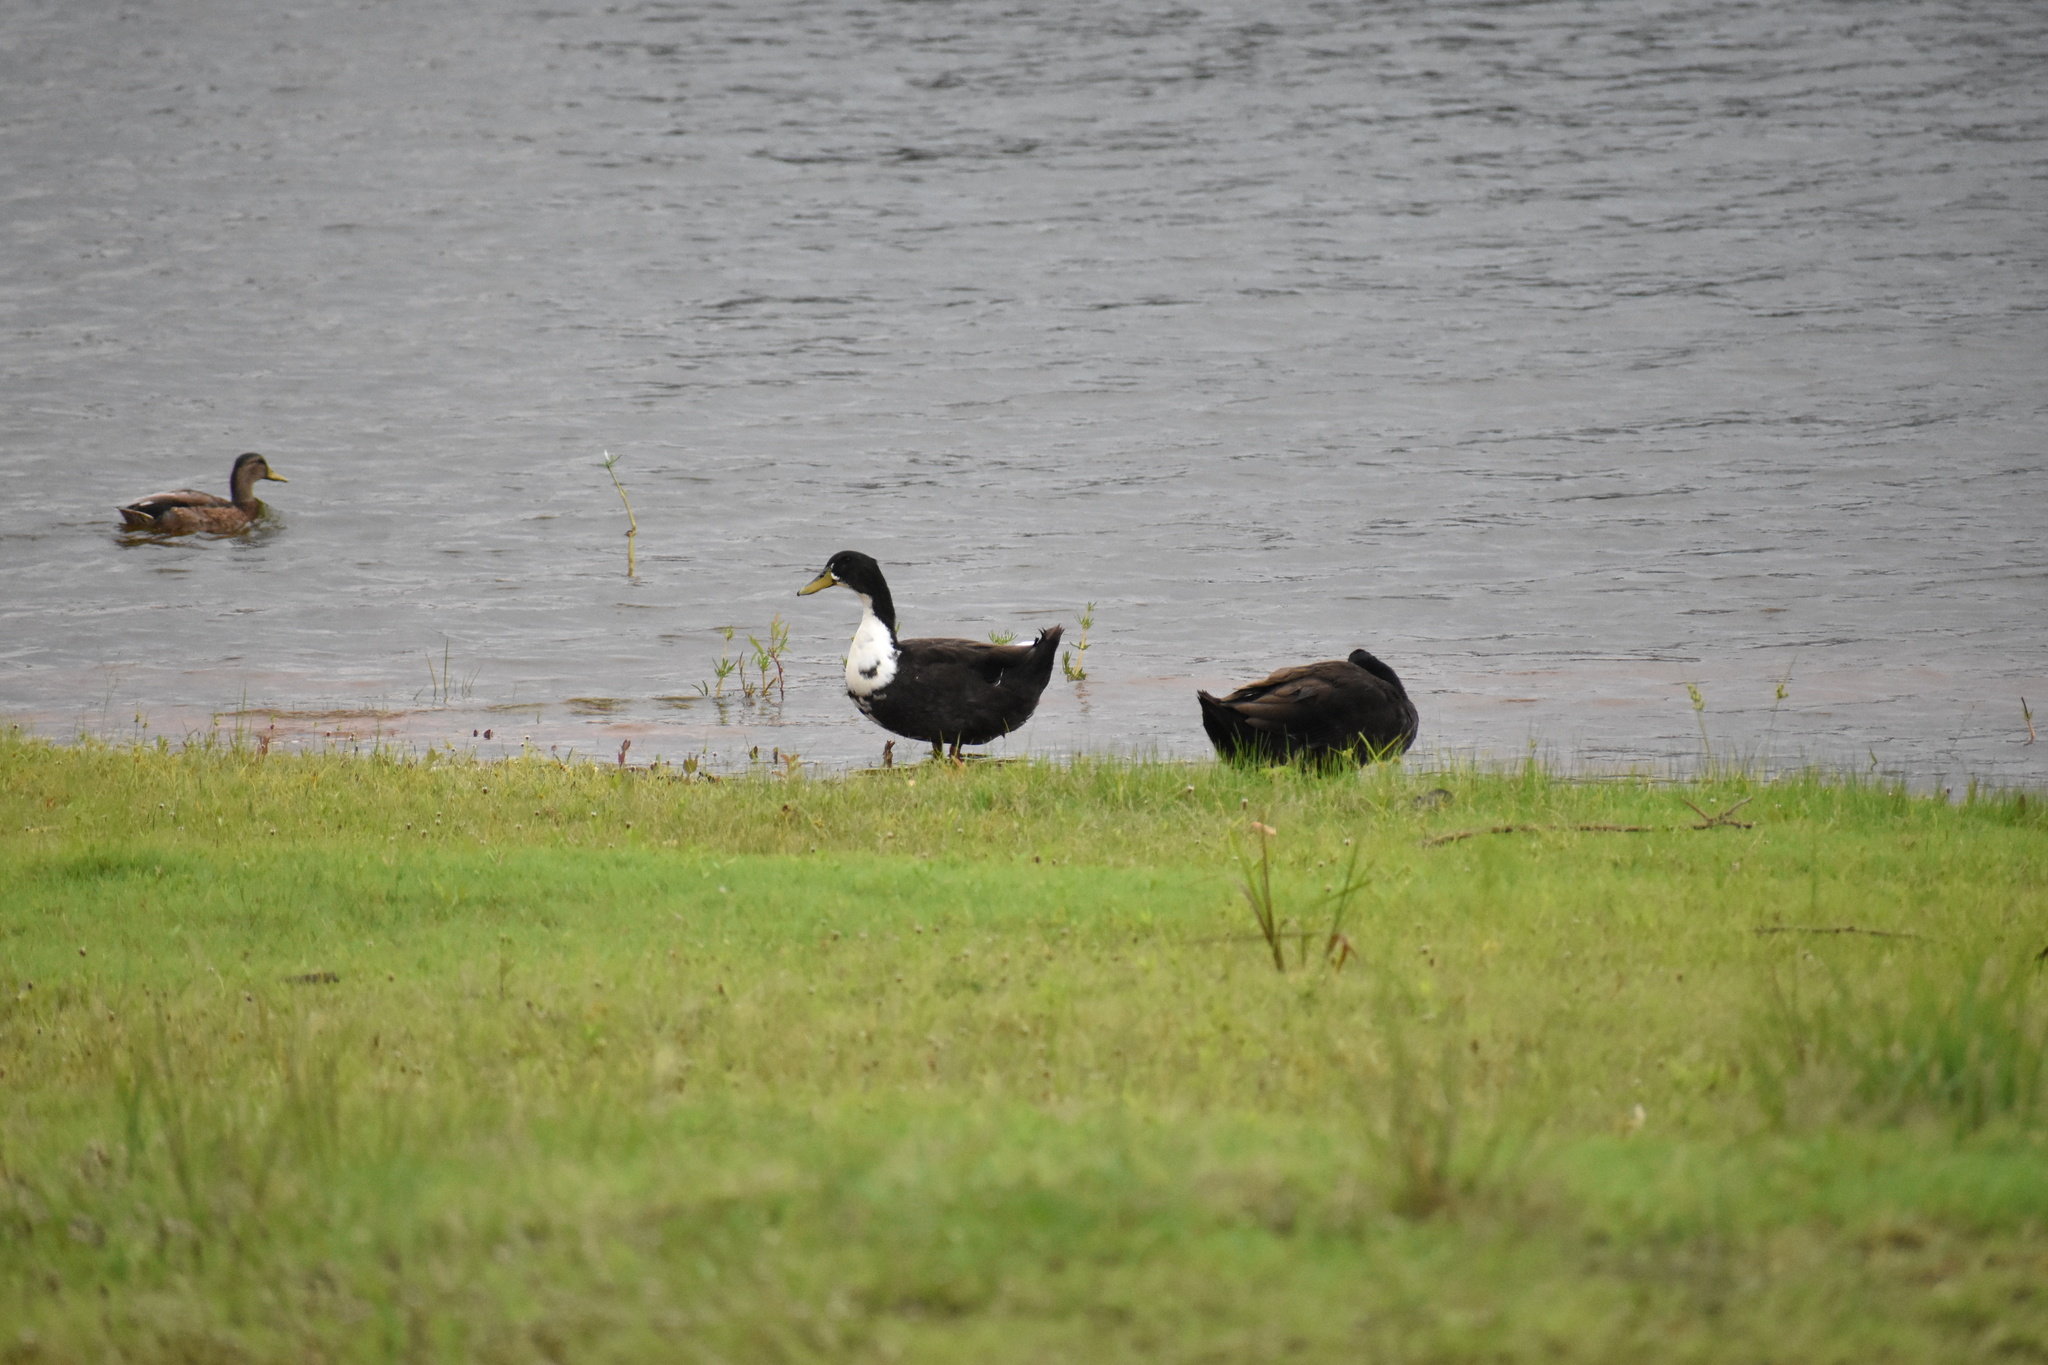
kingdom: Animalia
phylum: Chordata
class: Aves
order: Anseriformes
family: Anatidae
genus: Anas
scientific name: Anas platyrhynchos
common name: Mallard
